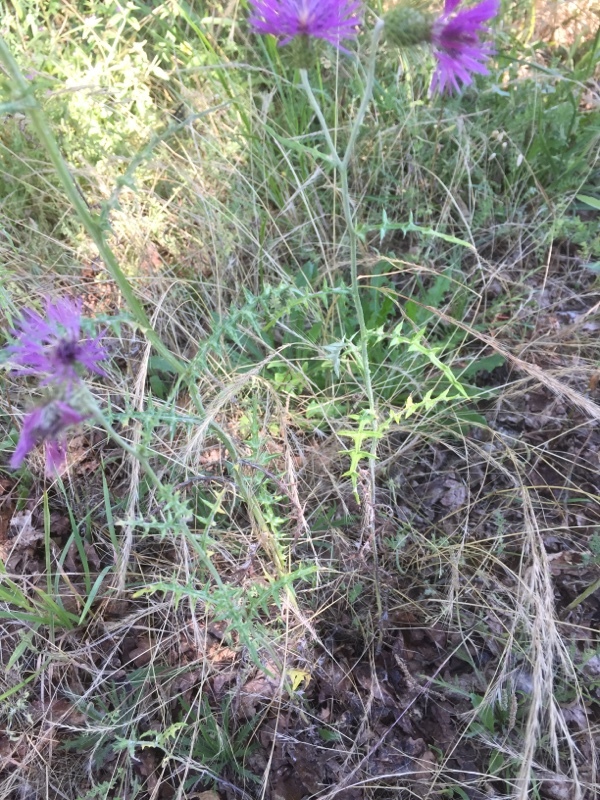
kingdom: Plantae
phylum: Tracheophyta
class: Magnoliopsida
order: Asterales
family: Asteraceae
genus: Galactites
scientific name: Galactites tomentosa
